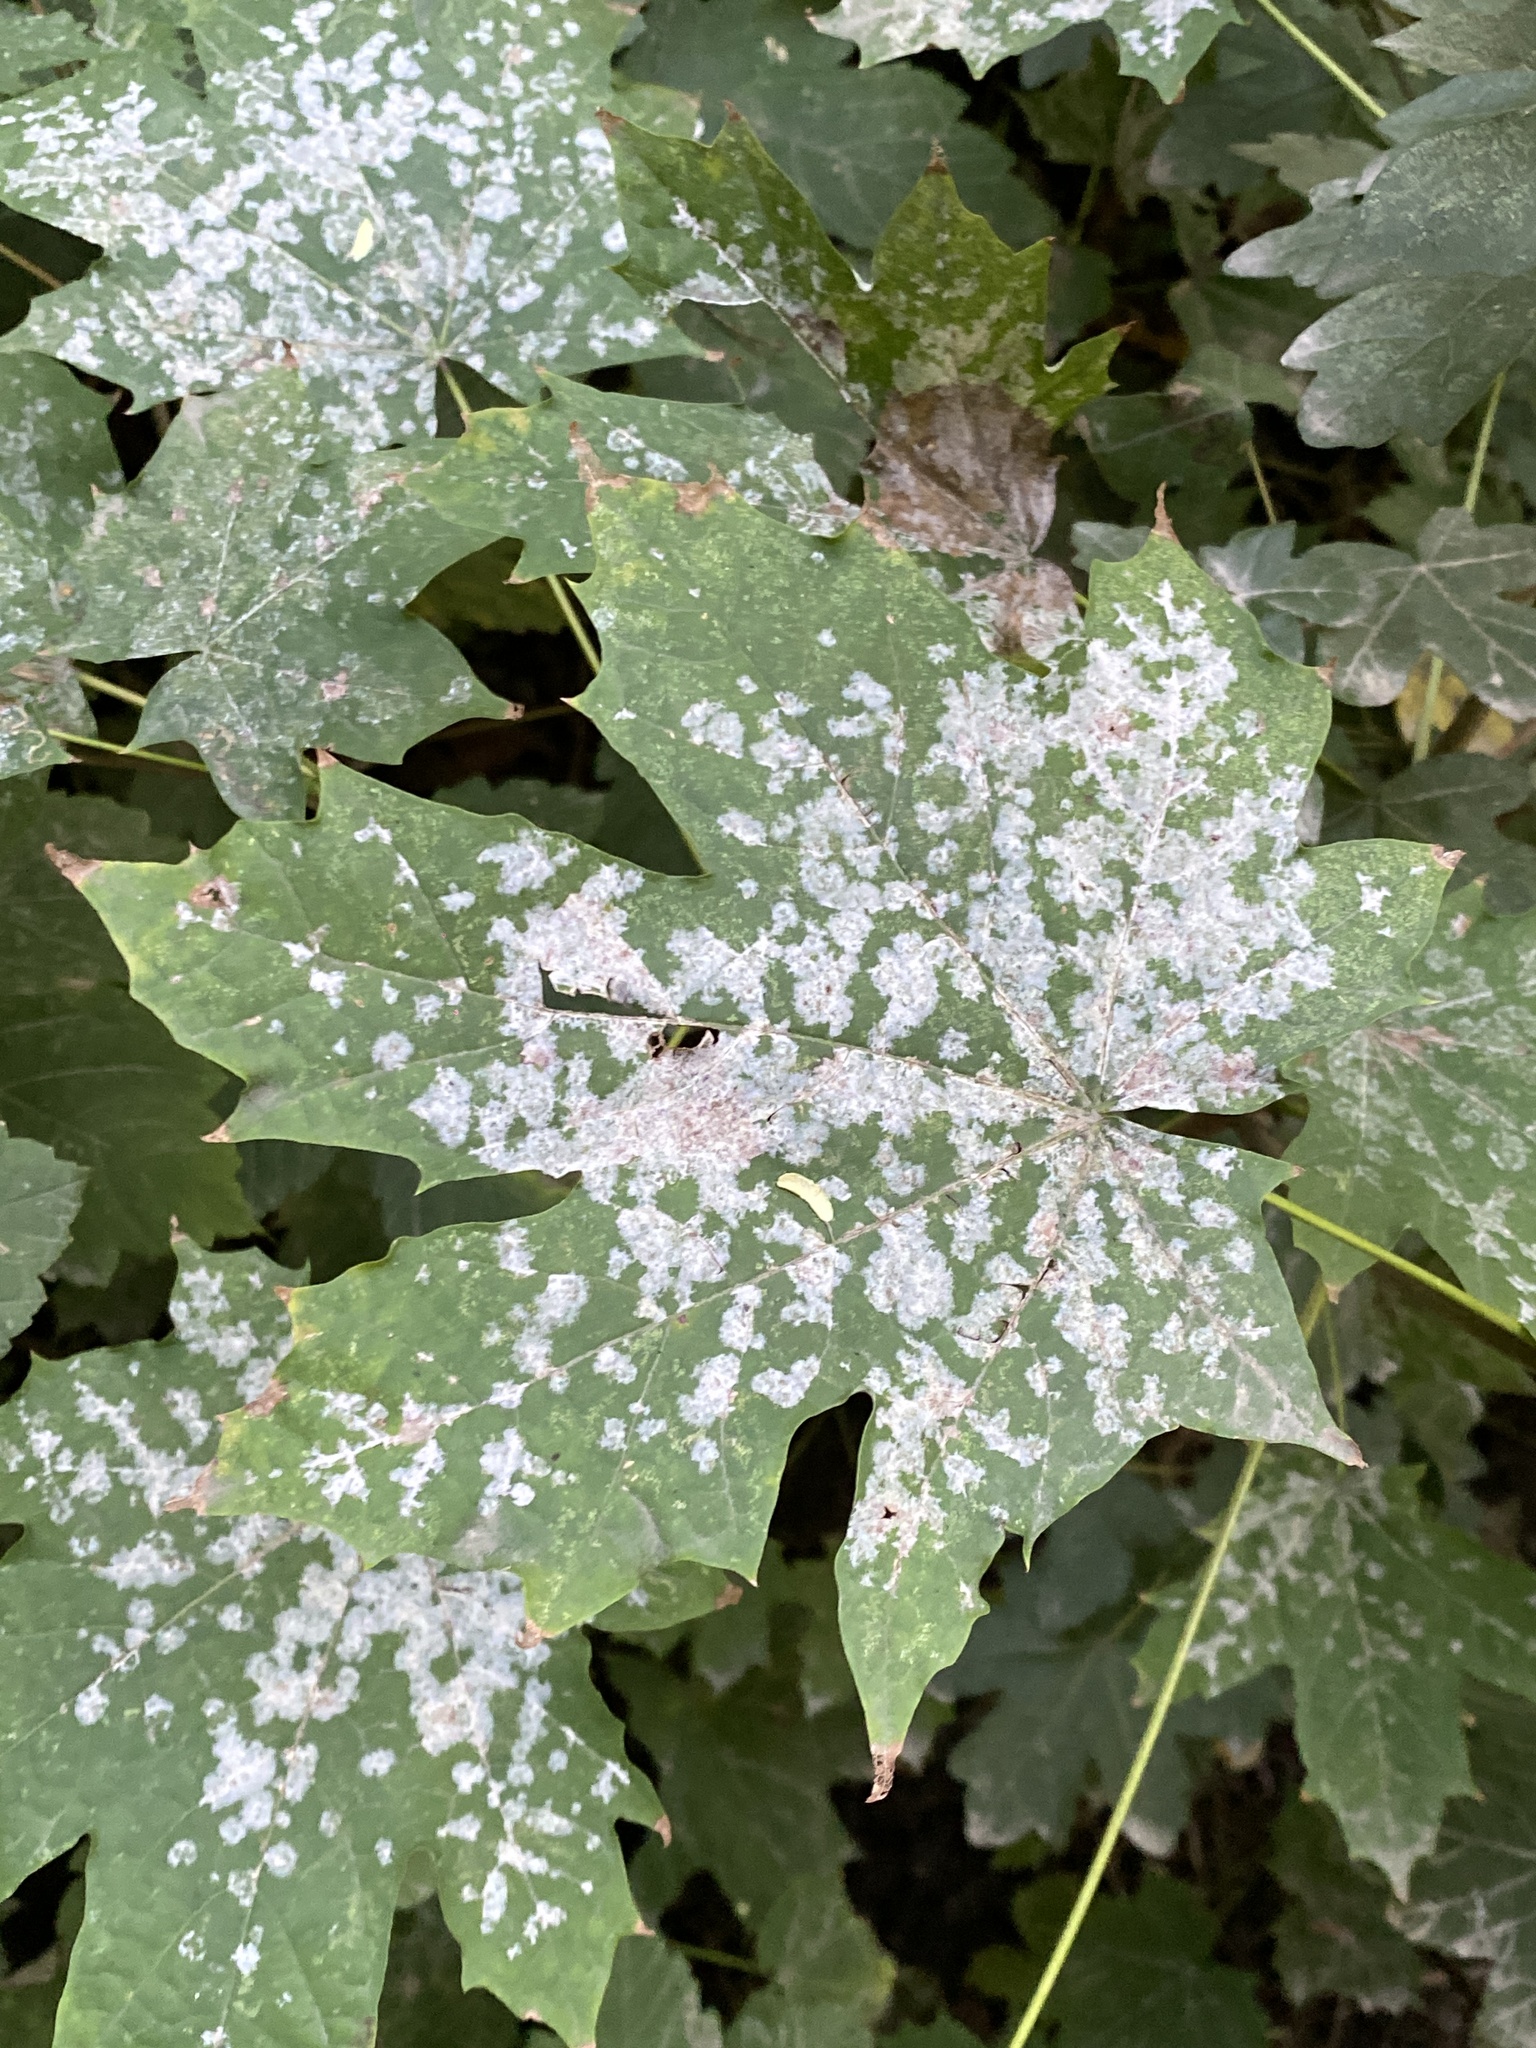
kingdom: Fungi
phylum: Ascomycota
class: Leotiomycetes
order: Helotiales
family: Erysiphaceae
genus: Sawadaea
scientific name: Sawadaea tulasnei
